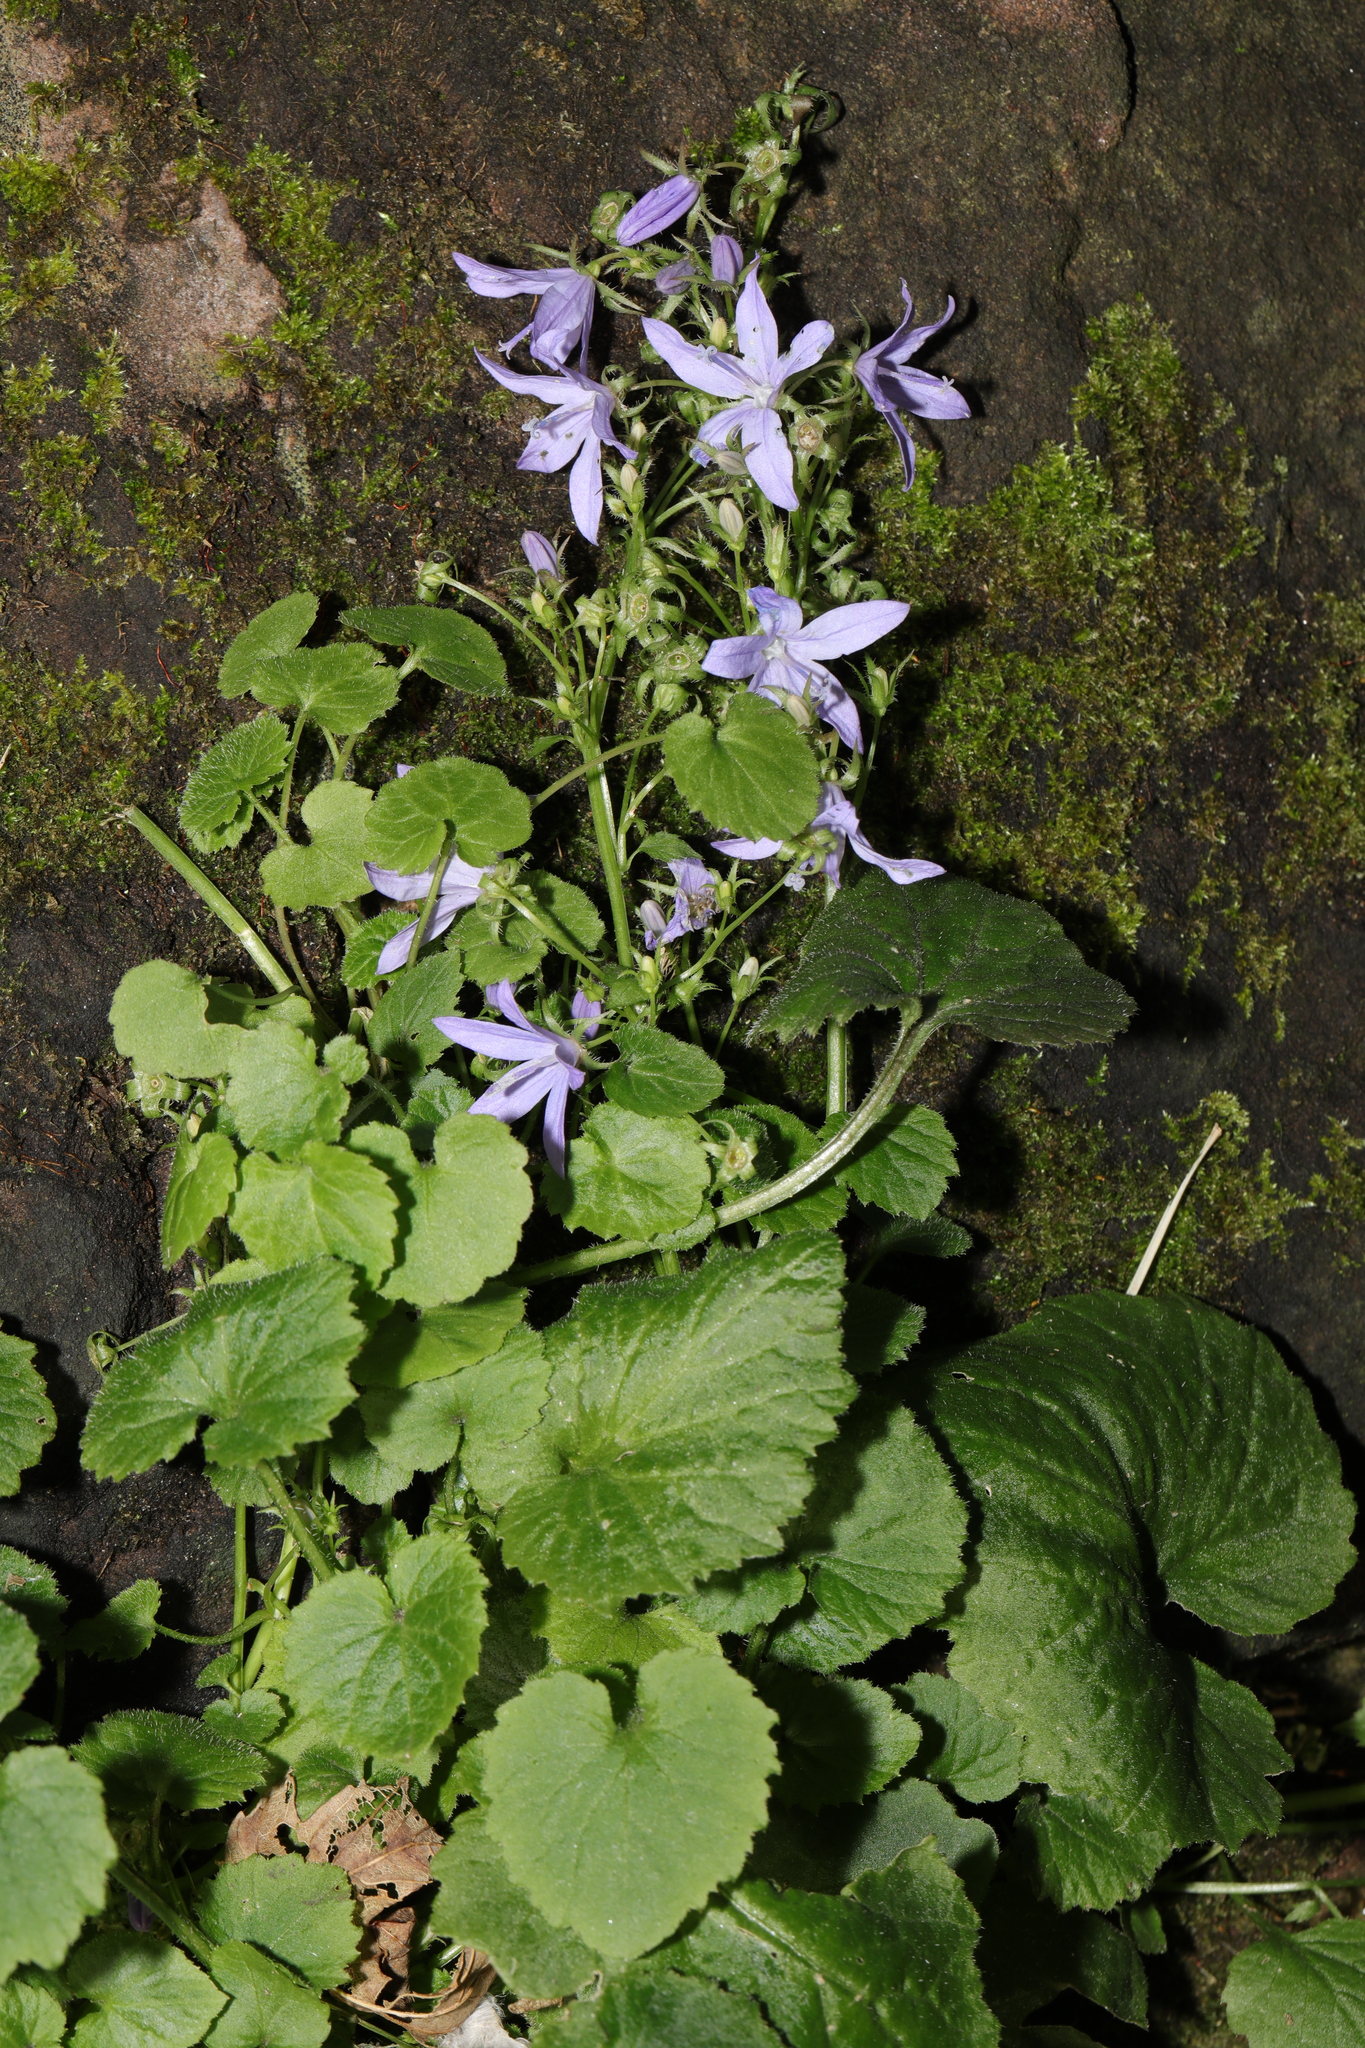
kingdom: Plantae
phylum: Tracheophyta
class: Magnoliopsida
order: Asterales
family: Campanulaceae
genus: Campanula
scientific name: Campanula poscharskyana
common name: Trailing bellflower
